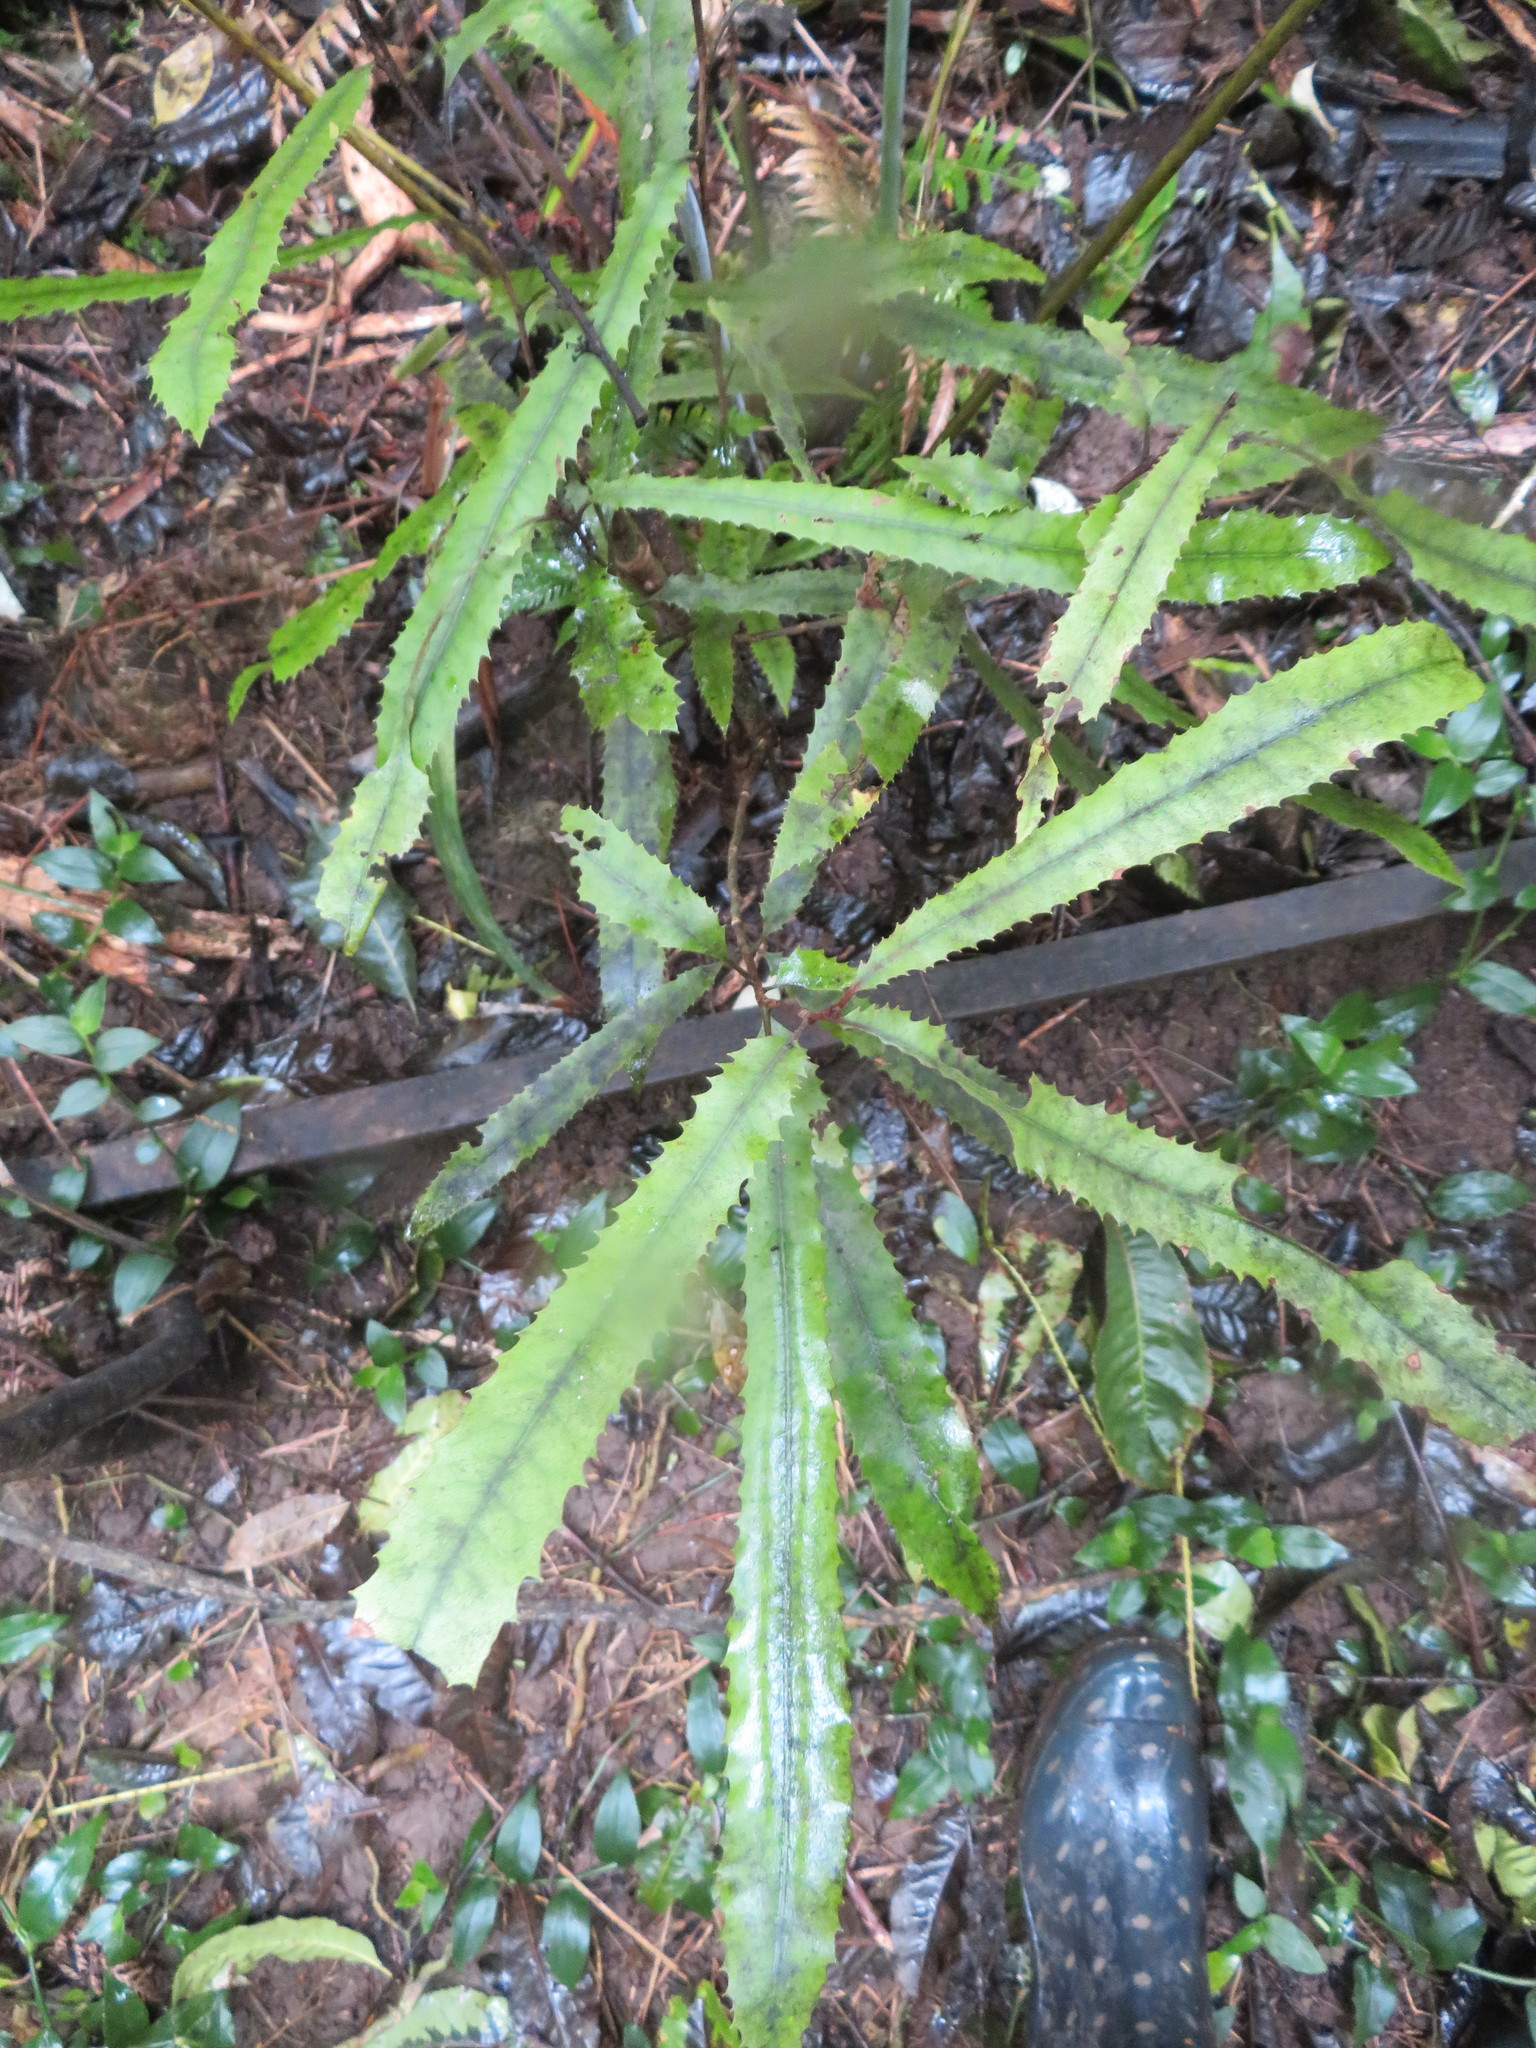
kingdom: Plantae
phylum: Tracheophyta
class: Magnoliopsida
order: Proteales
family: Proteaceae
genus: Knightia
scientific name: Knightia excelsa
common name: New zealand-honeysuckle
